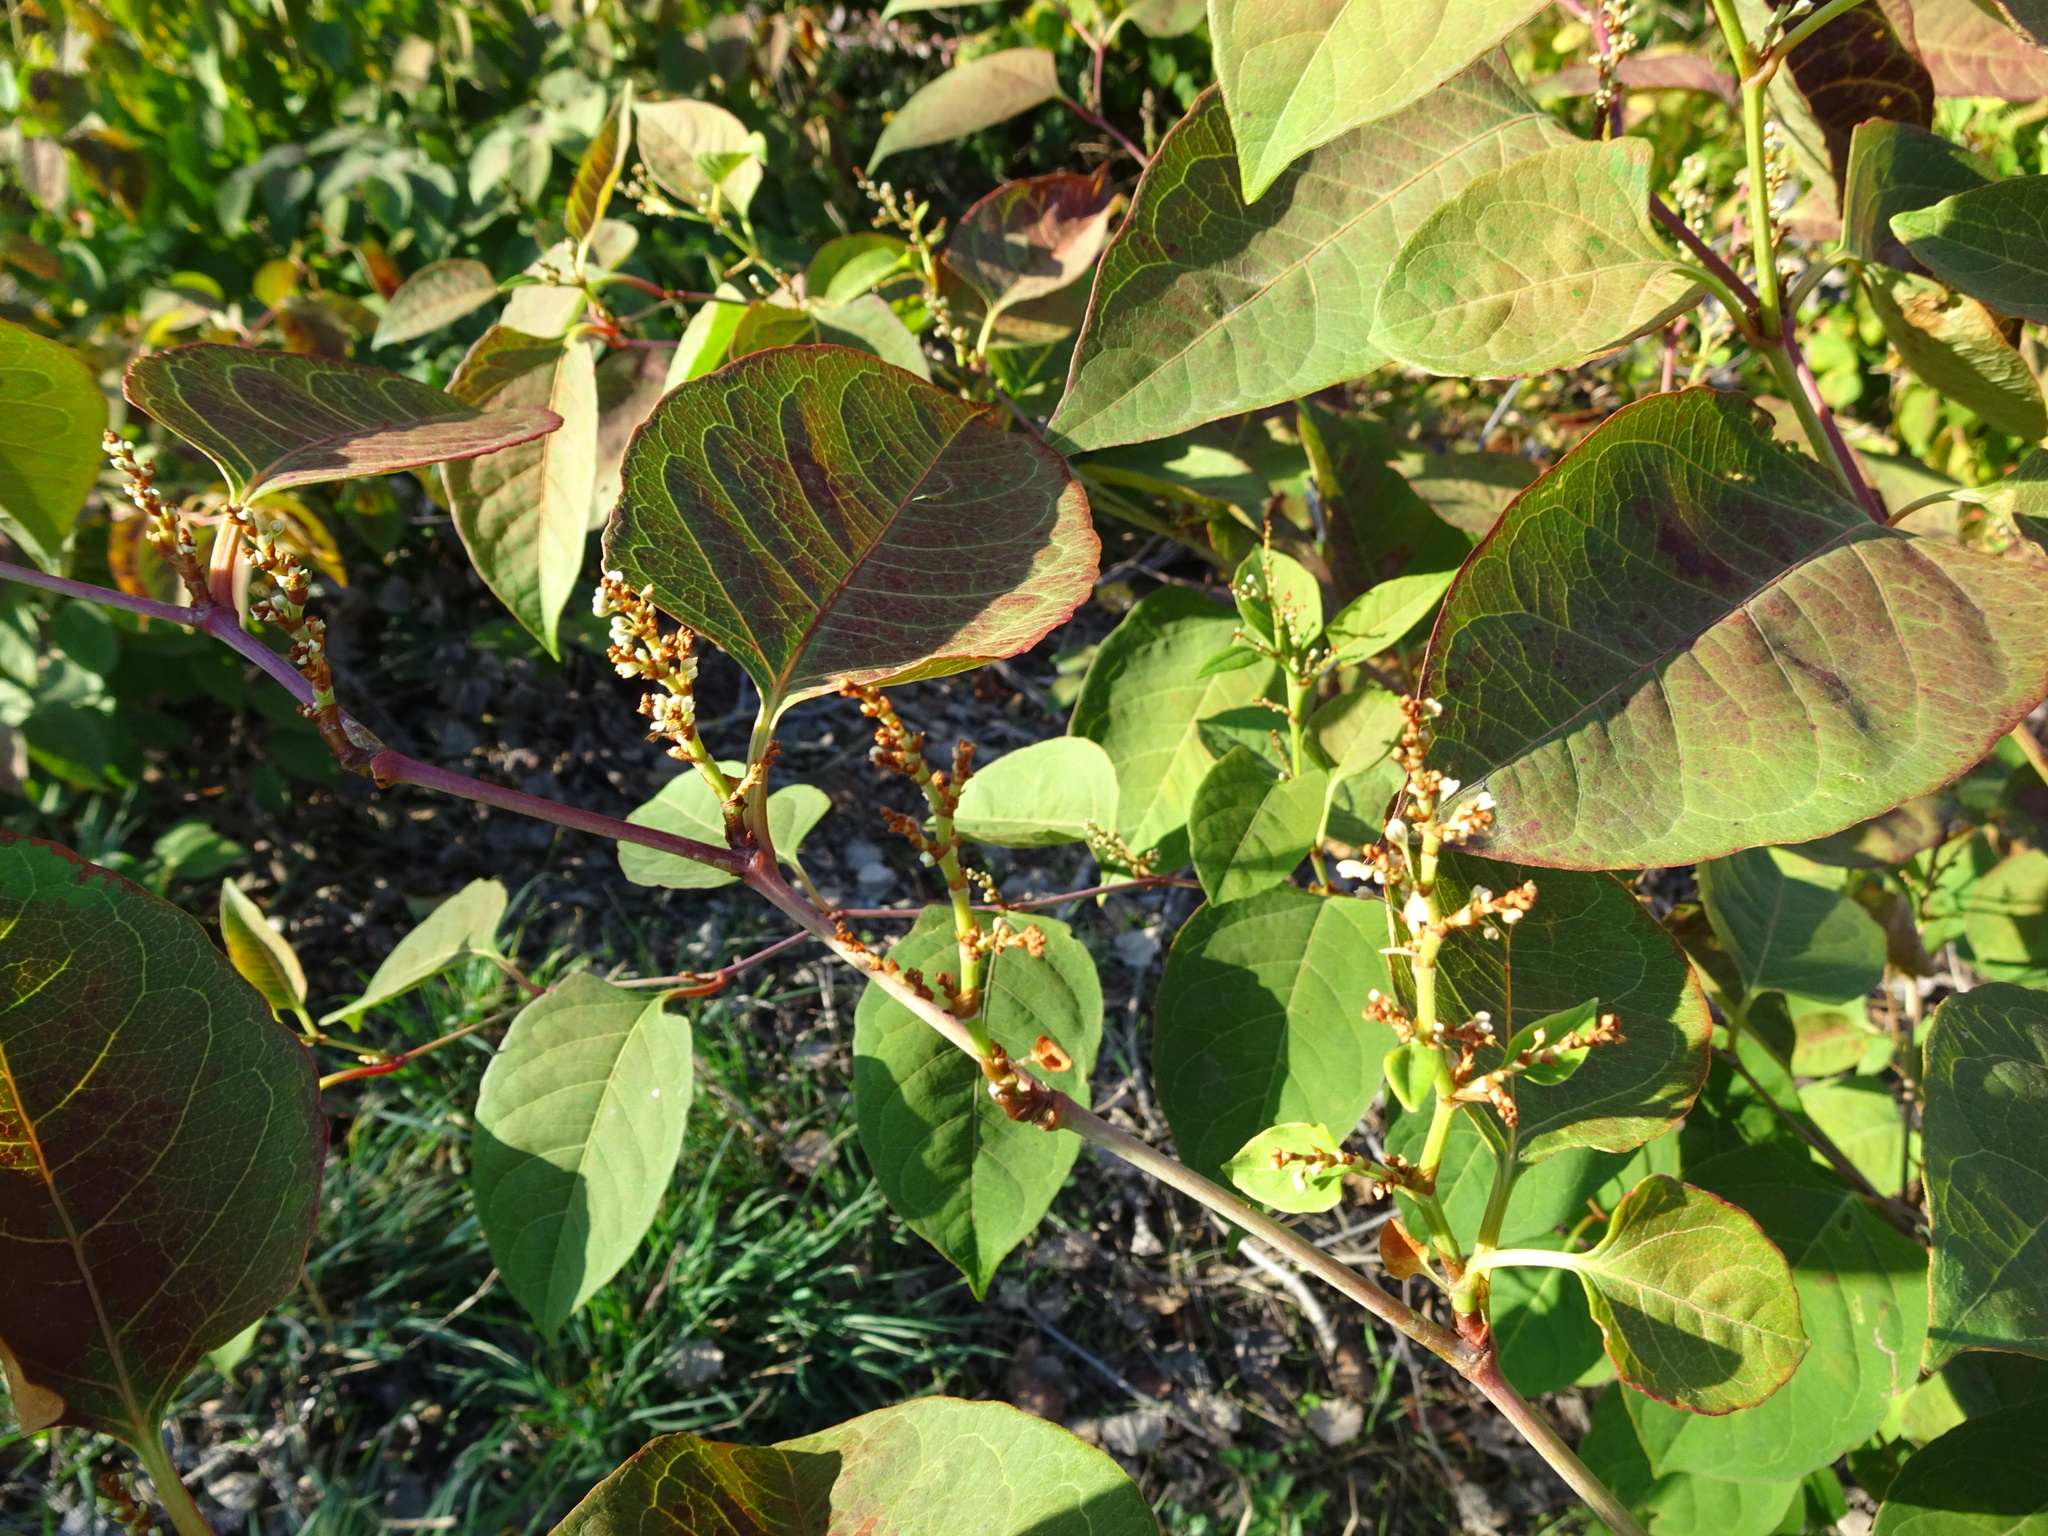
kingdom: Plantae
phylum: Tracheophyta
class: Magnoliopsida
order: Caryophyllales
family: Polygonaceae
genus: Reynoutria
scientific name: Reynoutria japonica
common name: Japanese knotweed
